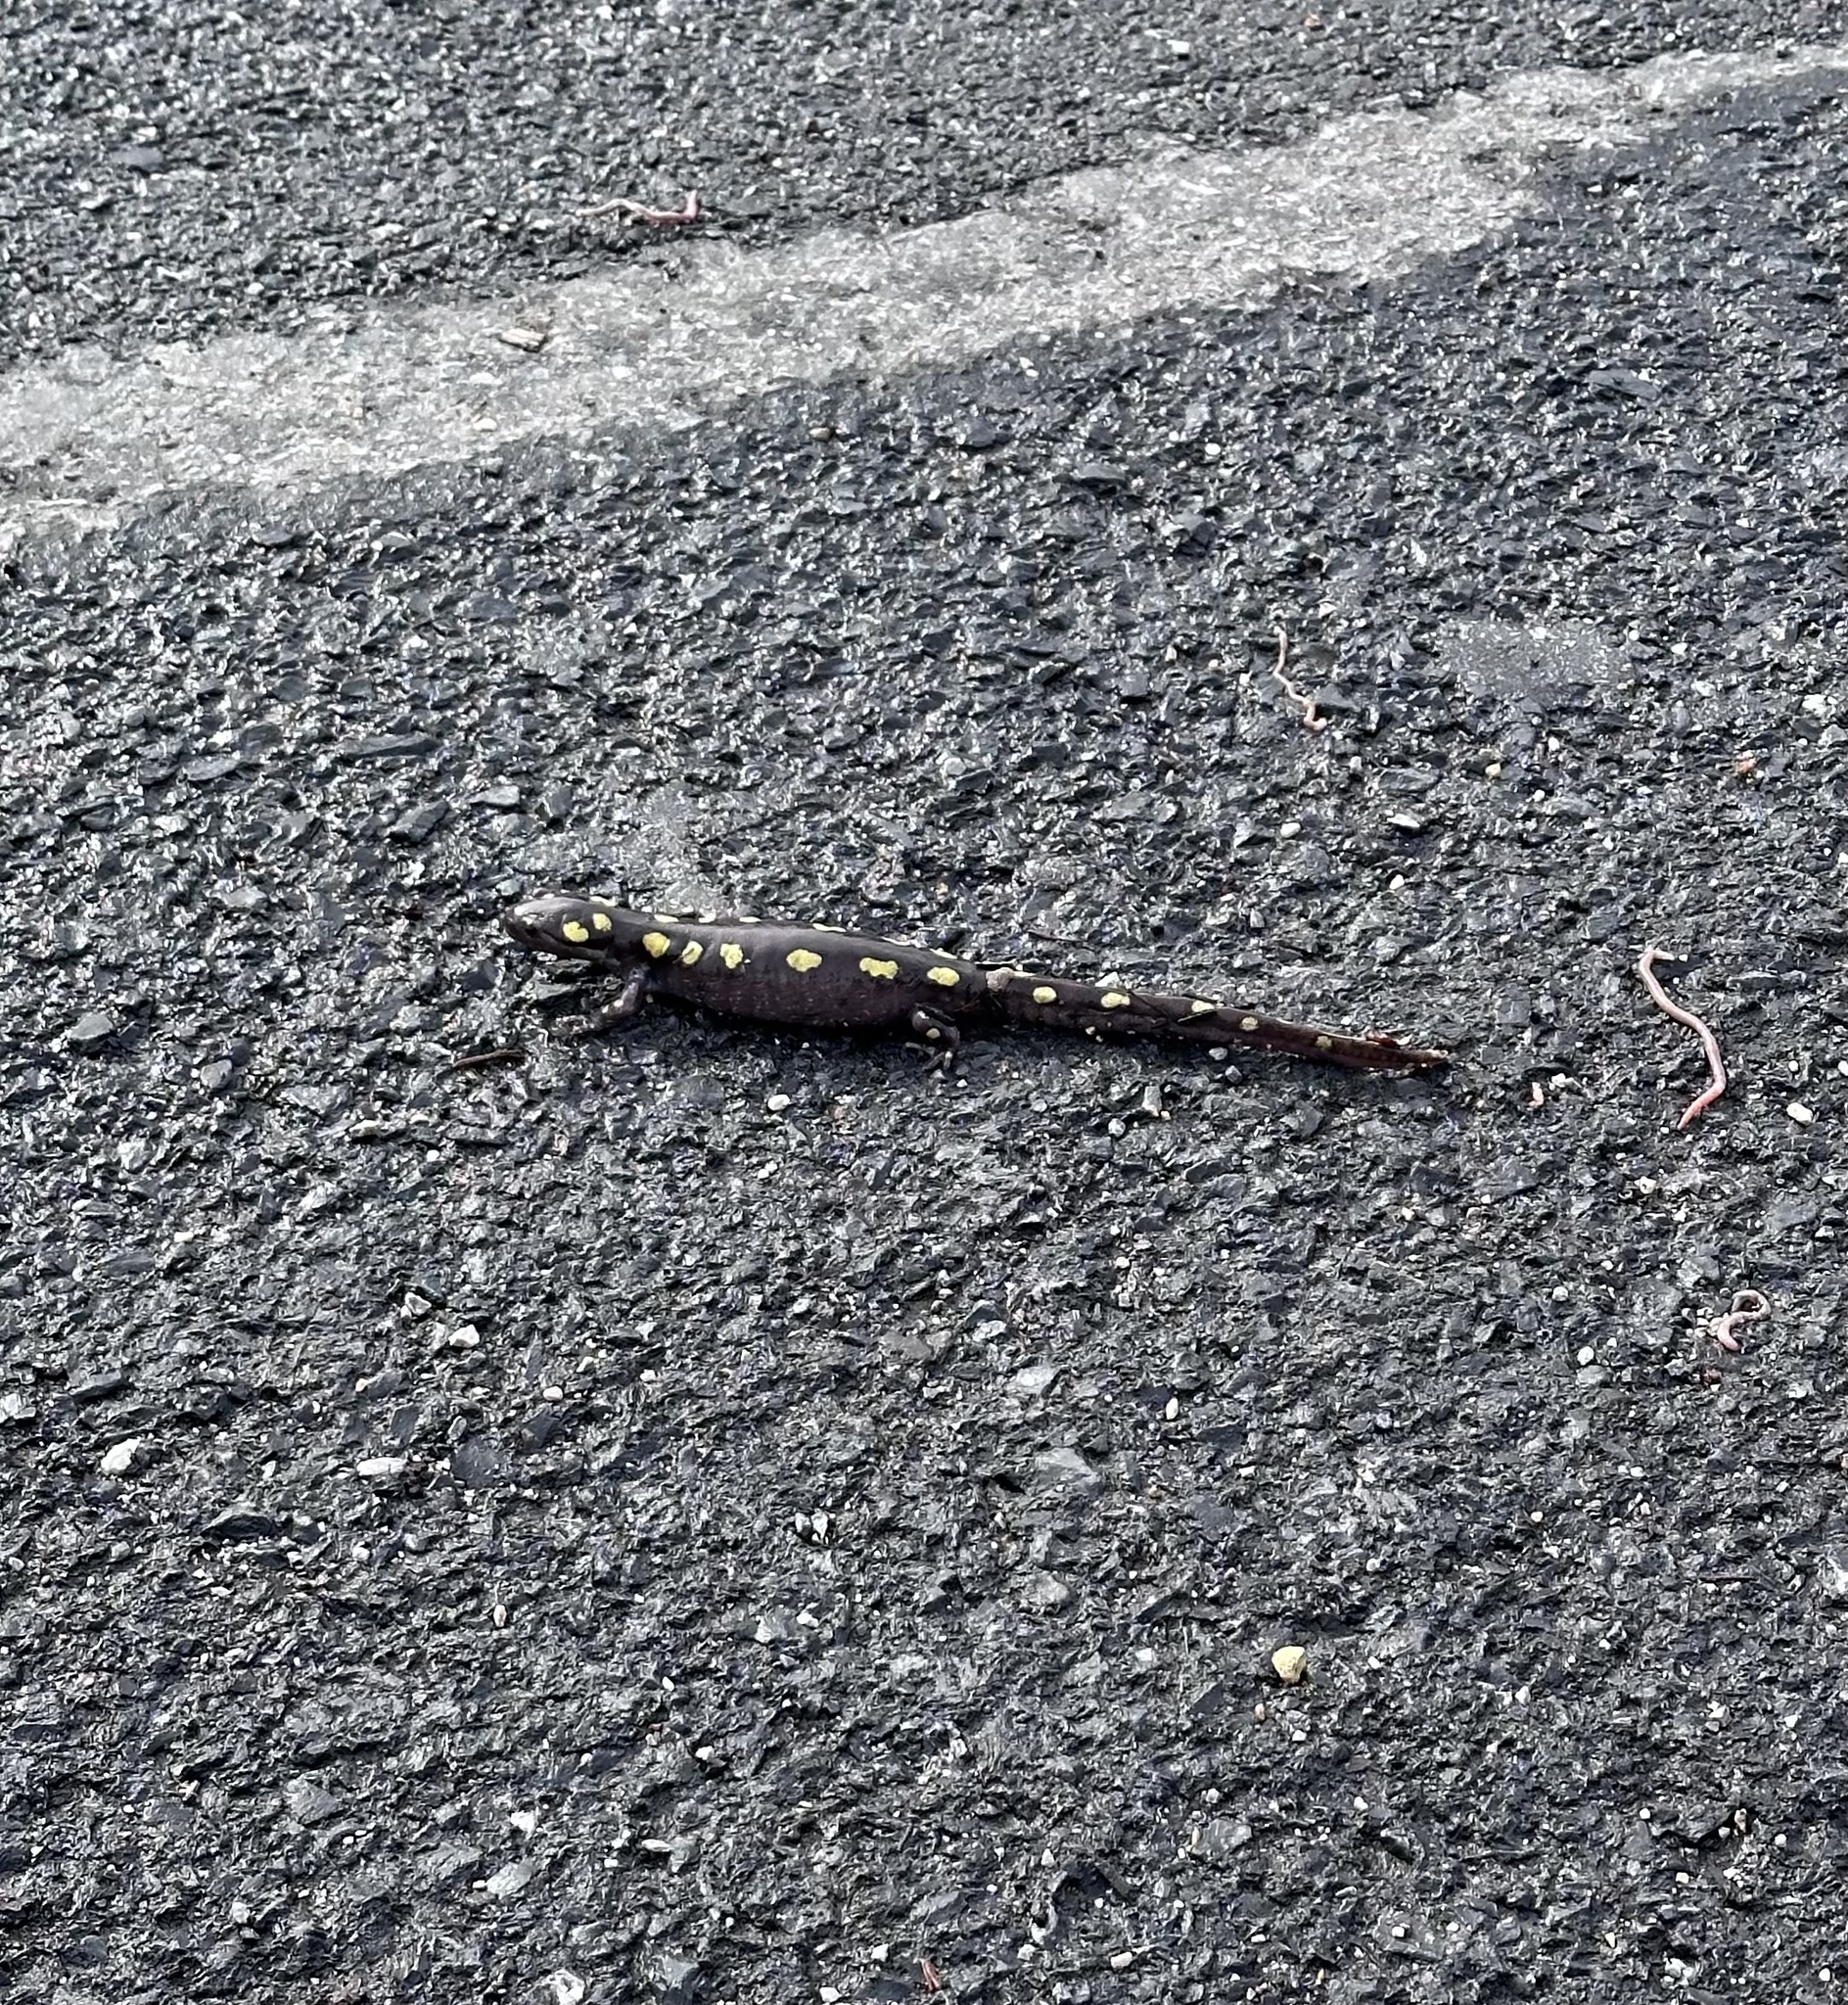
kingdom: Animalia
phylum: Chordata
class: Amphibia
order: Caudata
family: Ambystomatidae
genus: Ambystoma
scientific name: Ambystoma maculatum
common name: Spotted salamander
